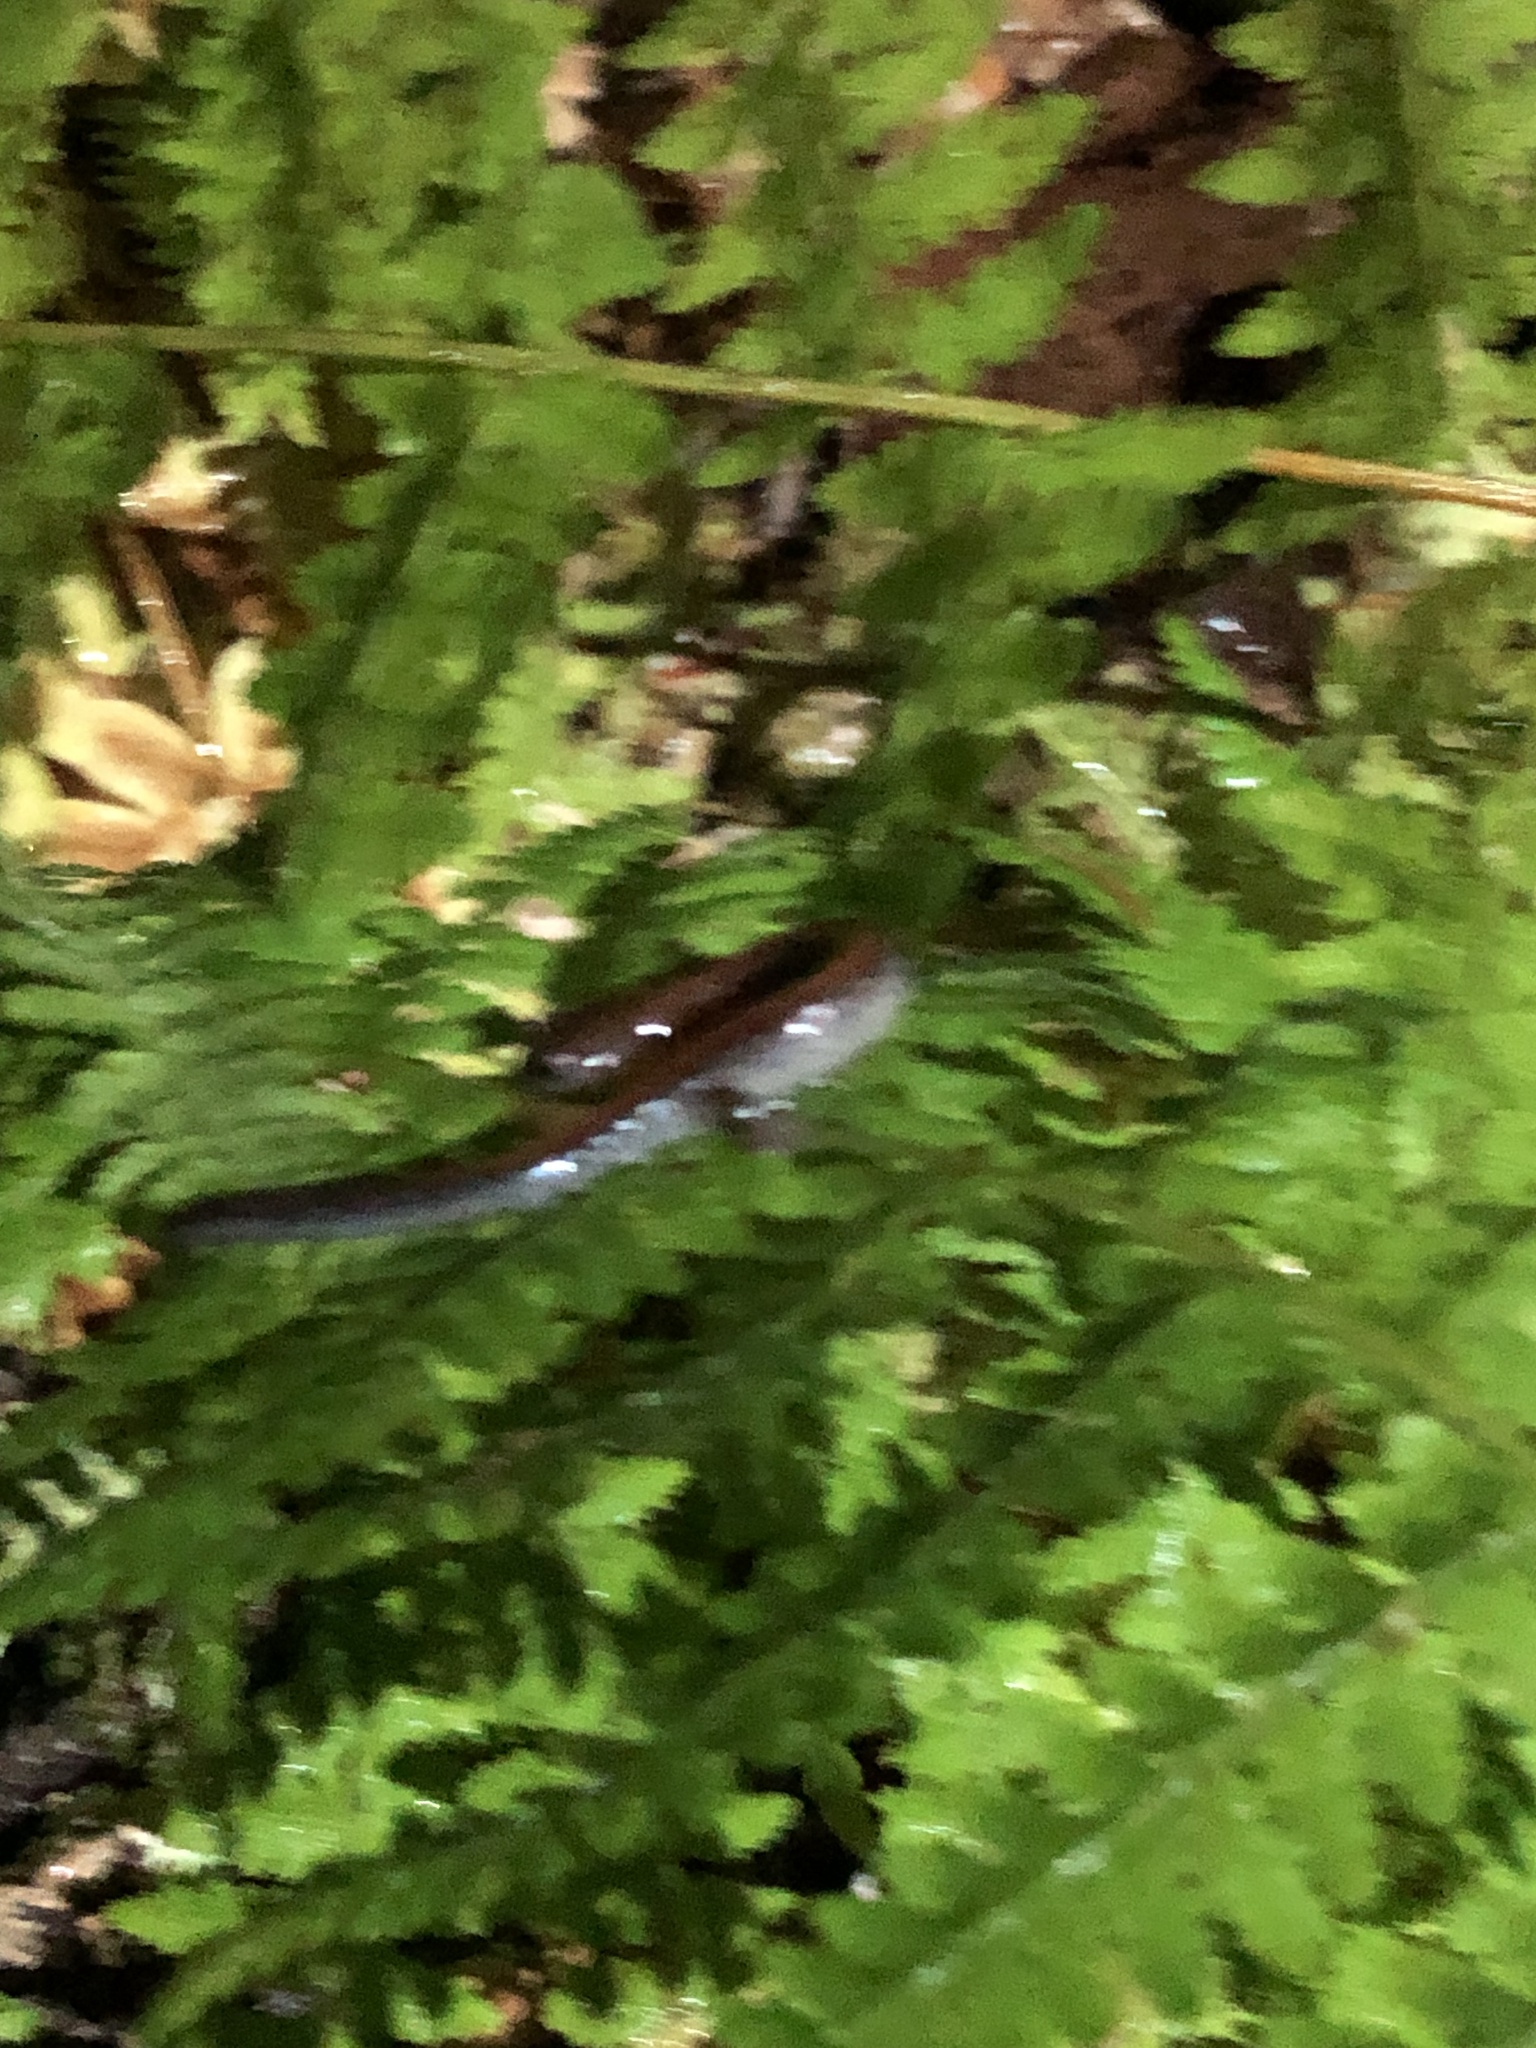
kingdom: Animalia
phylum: Chordata
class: Amphibia
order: Caudata
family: Plethodontidae
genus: Plethodon
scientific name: Plethodon cinereus
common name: Redback salamander
